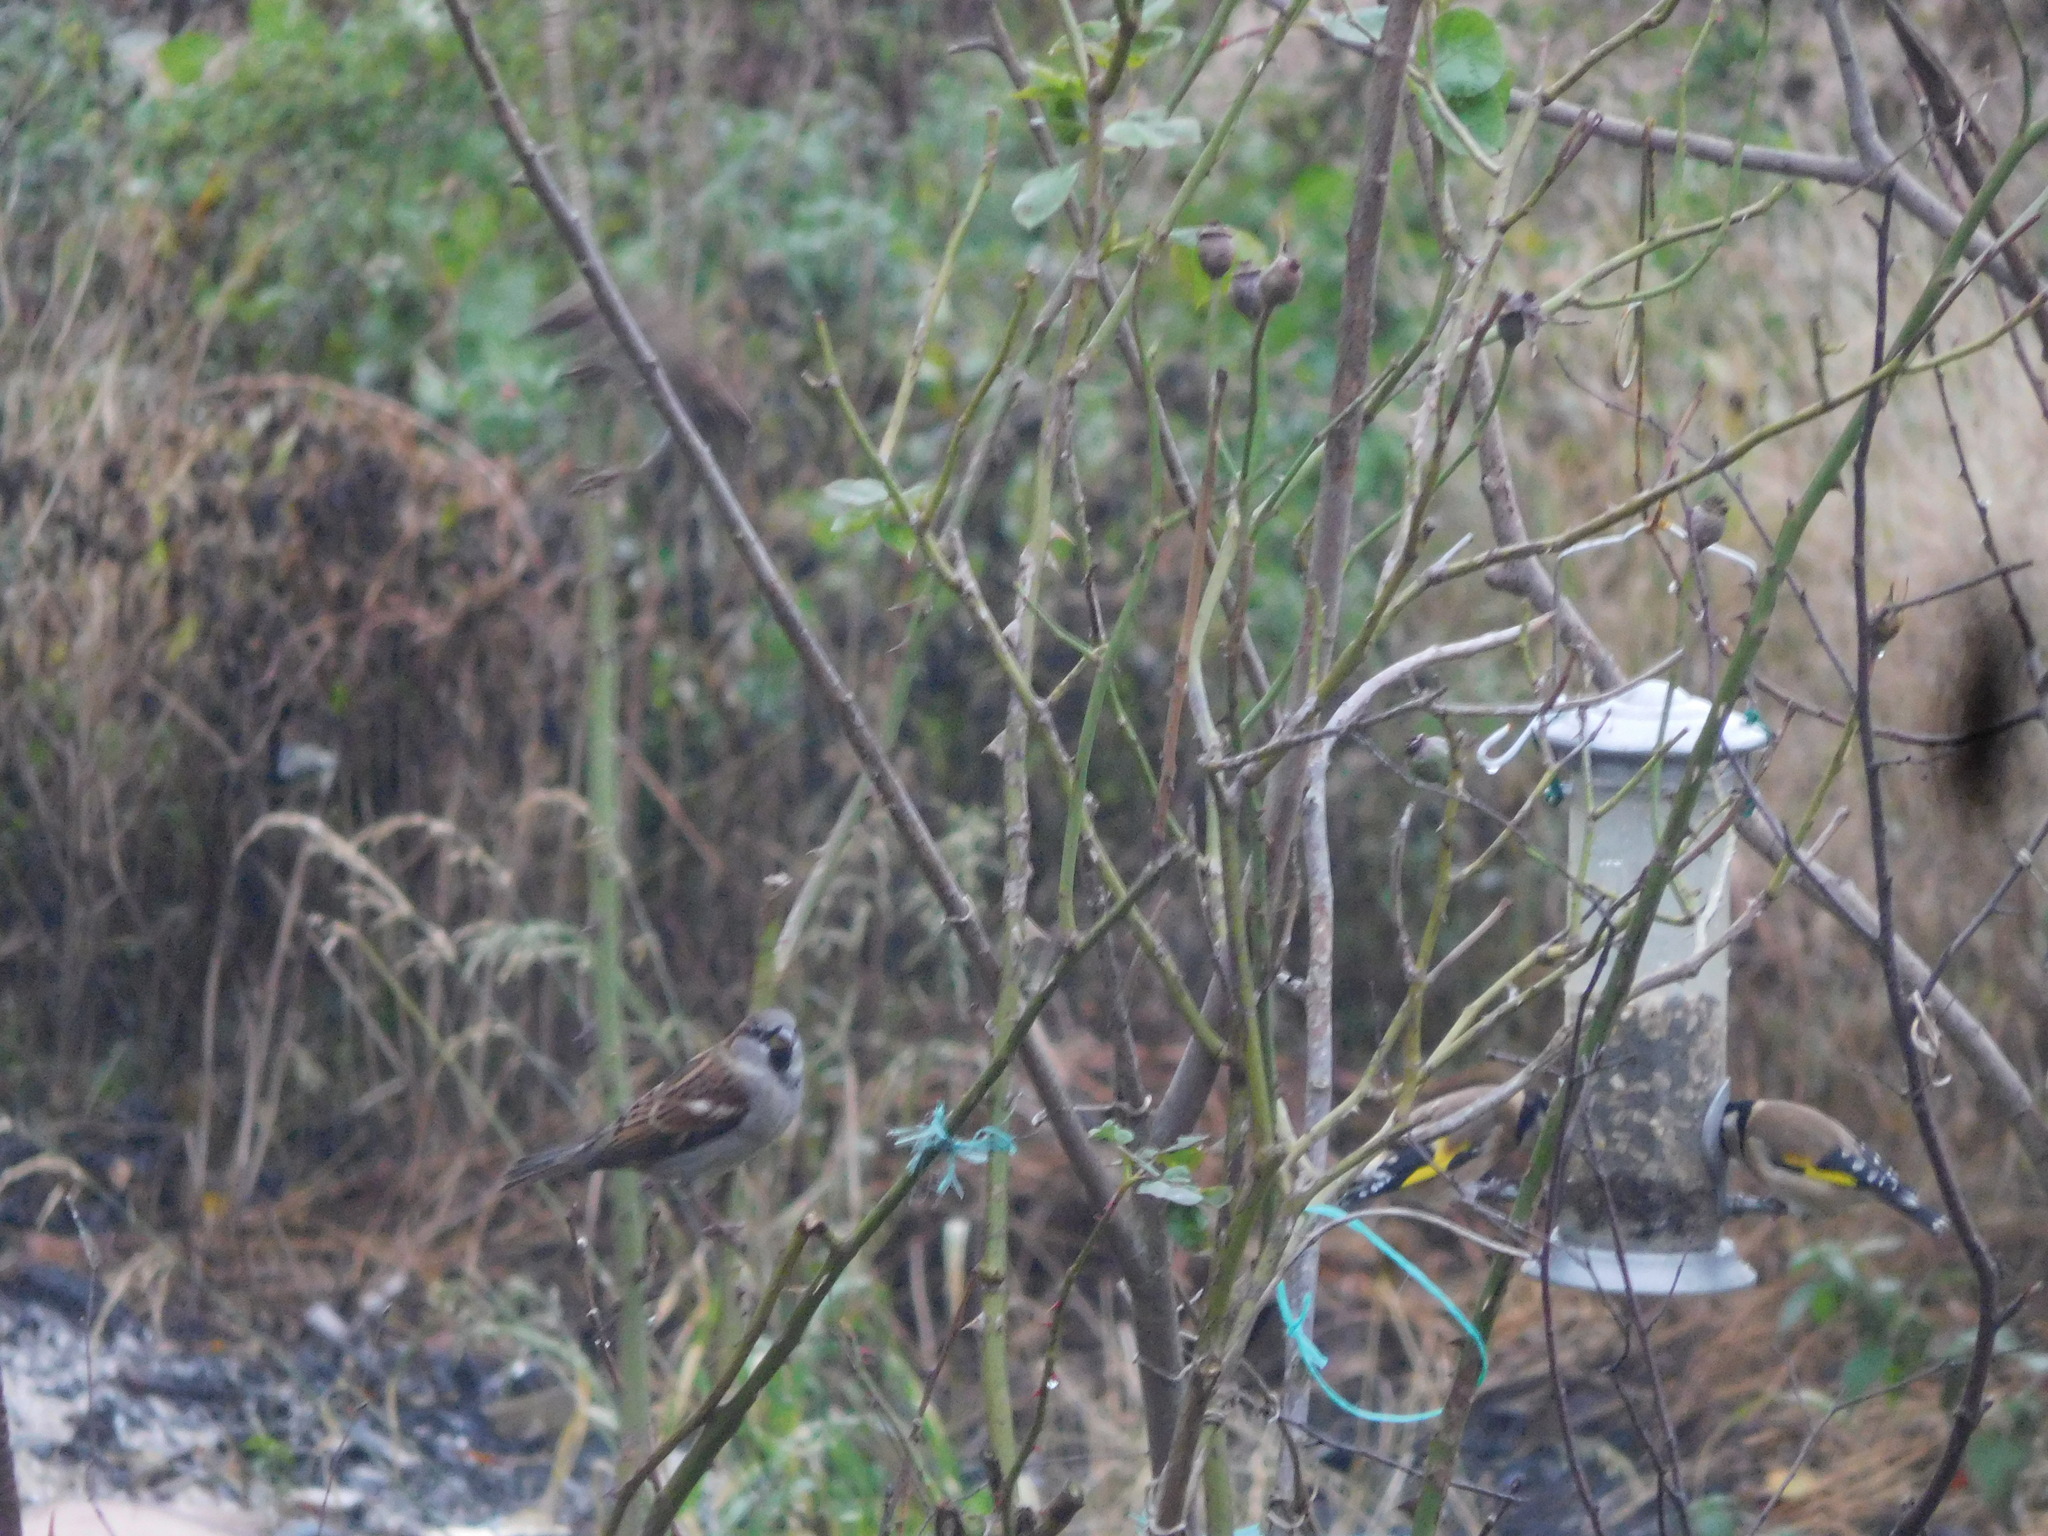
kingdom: Animalia
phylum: Chordata
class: Aves
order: Passeriformes
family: Passeridae
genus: Passer
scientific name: Passer domesticus
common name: House sparrow
